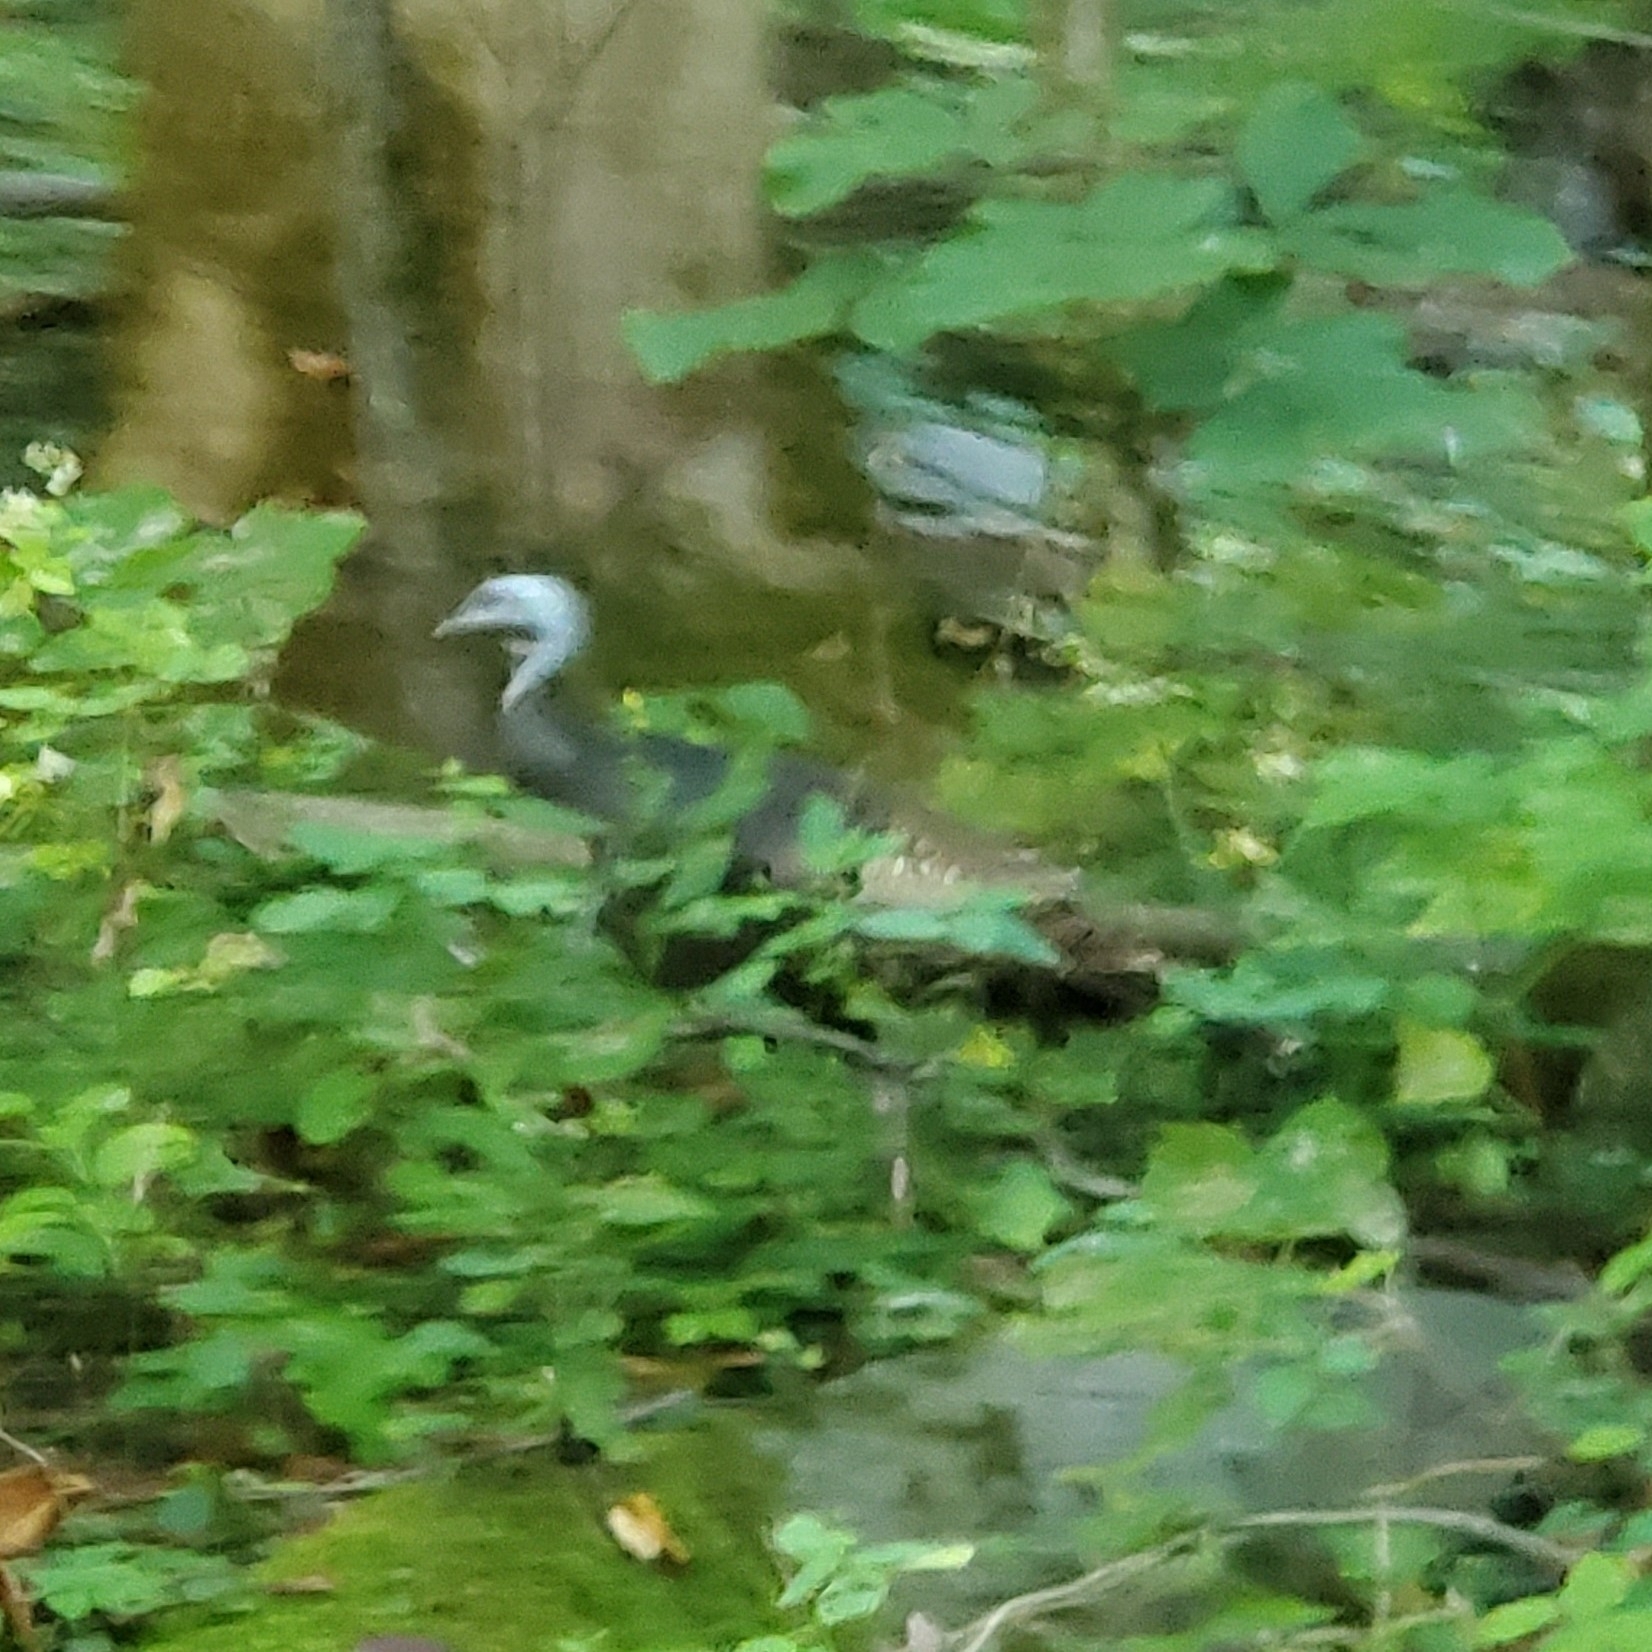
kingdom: Animalia
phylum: Chordata
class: Aves
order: Galliformes
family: Phasianidae
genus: Meleagris
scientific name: Meleagris gallopavo
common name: Wild turkey
